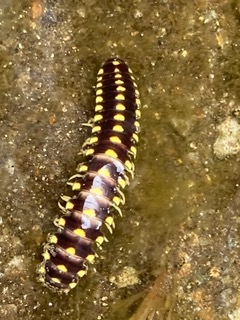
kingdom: Animalia
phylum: Arthropoda
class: Diplopoda
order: Polydesmida
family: Xystodesmidae
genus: Cherokia
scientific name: Cherokia georgiana
